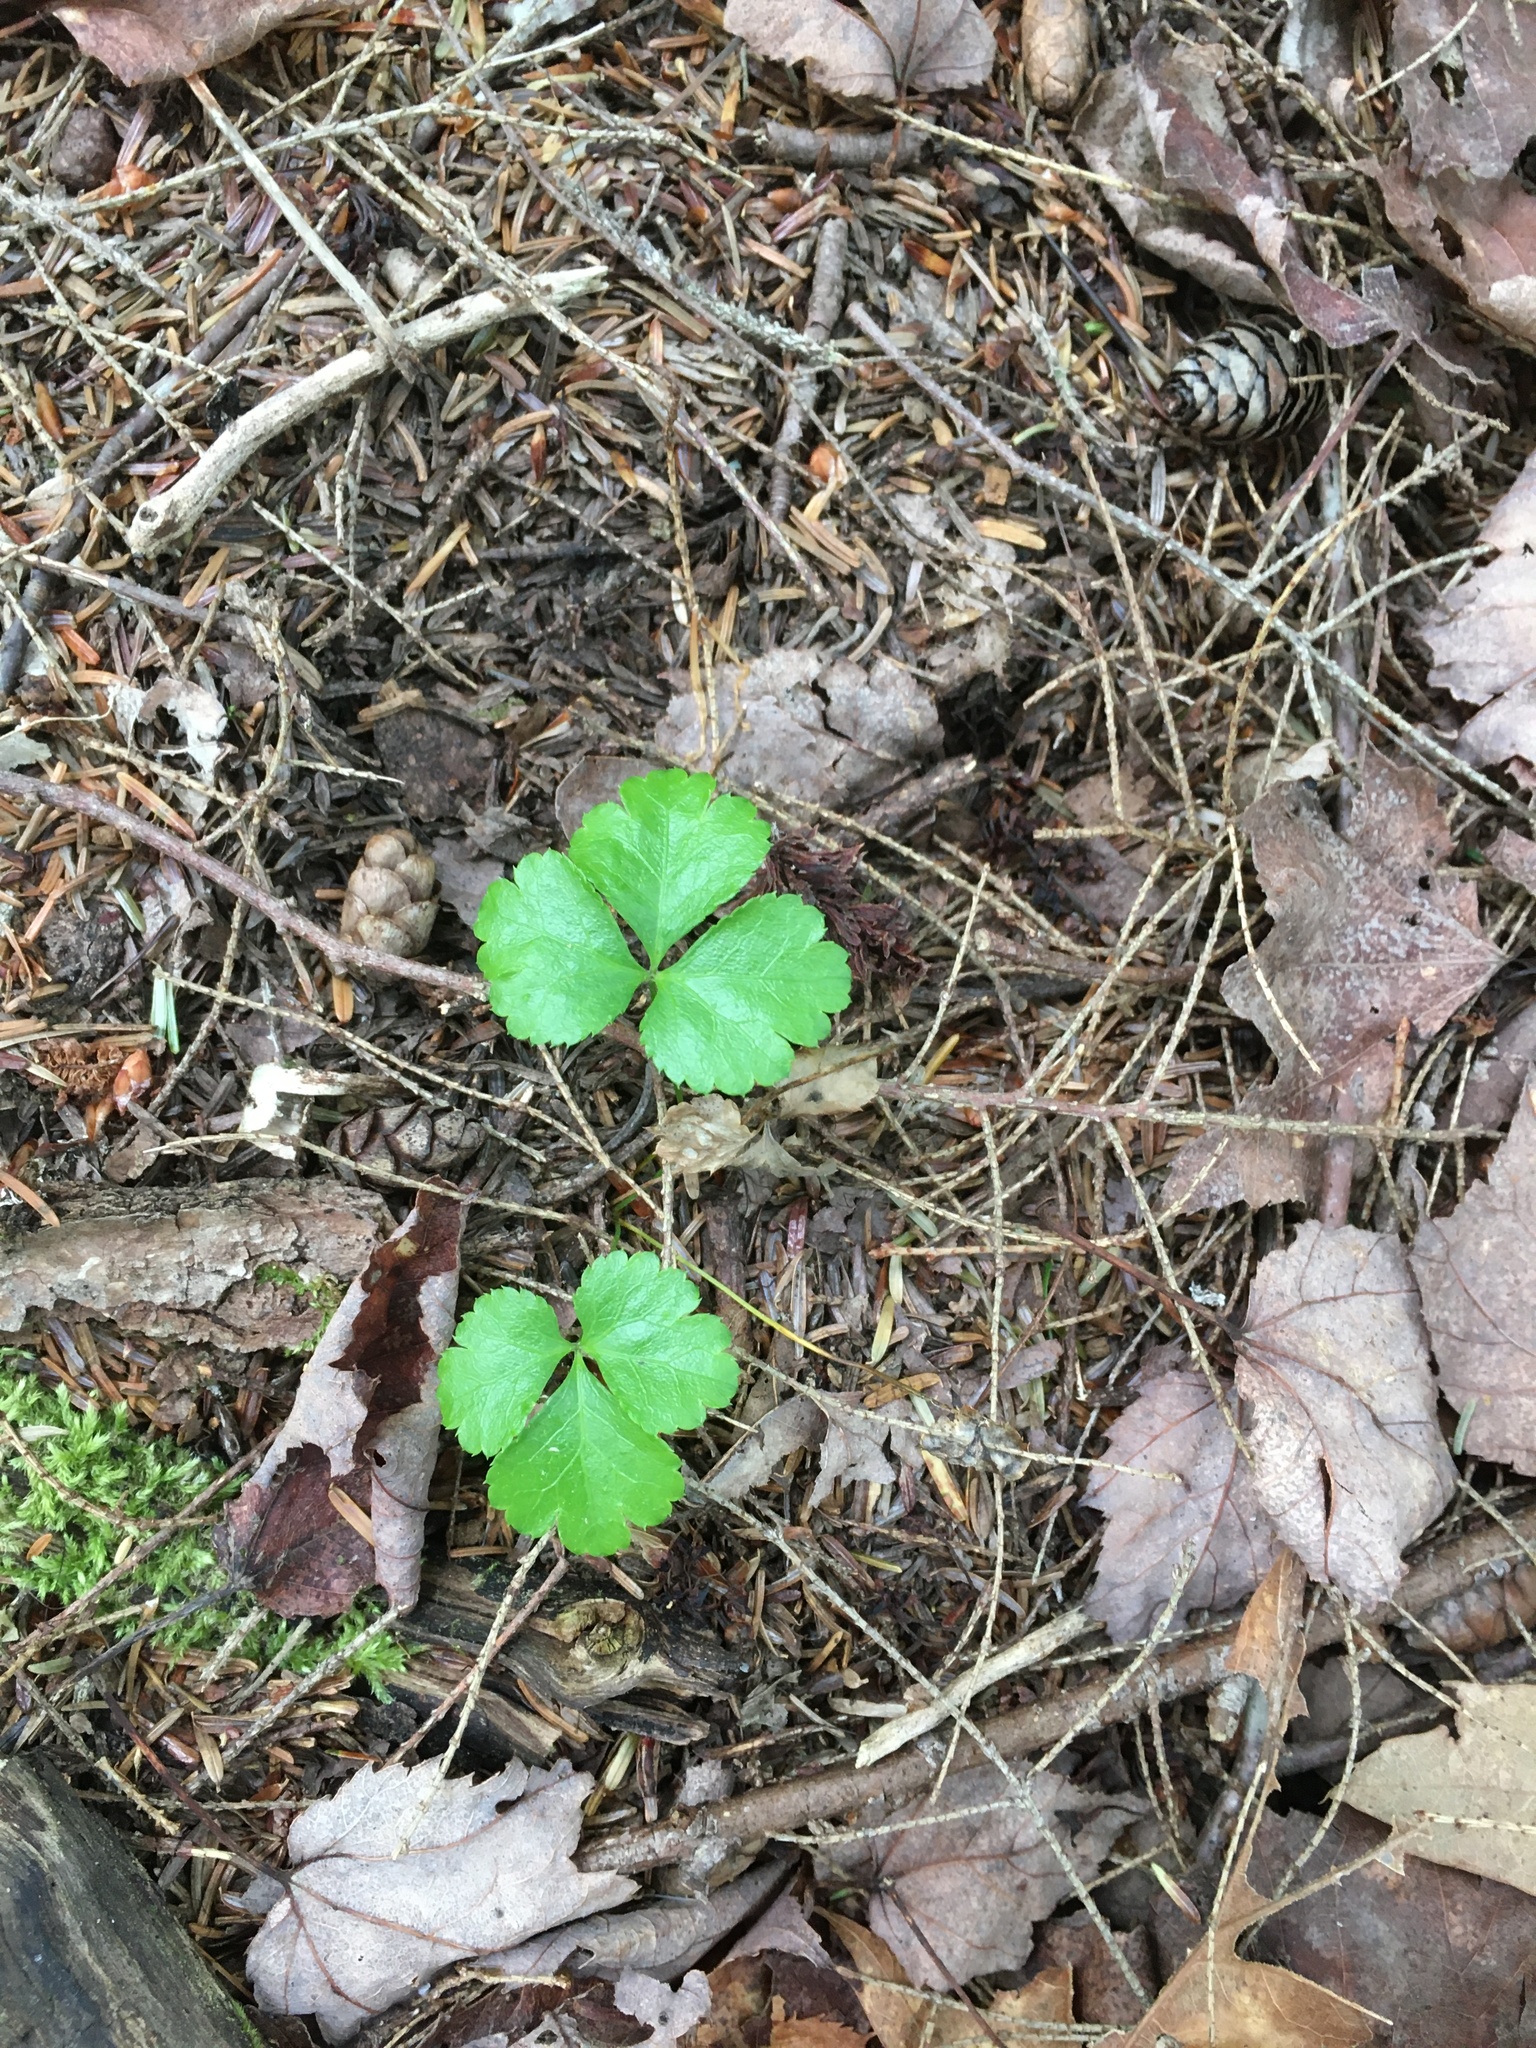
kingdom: Plantae
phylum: Tracheophyta
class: Magnoliopsida
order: Ranunculales
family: Ranunculaceae
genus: Coptis
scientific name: Coptis trifolia
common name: Canker-root
